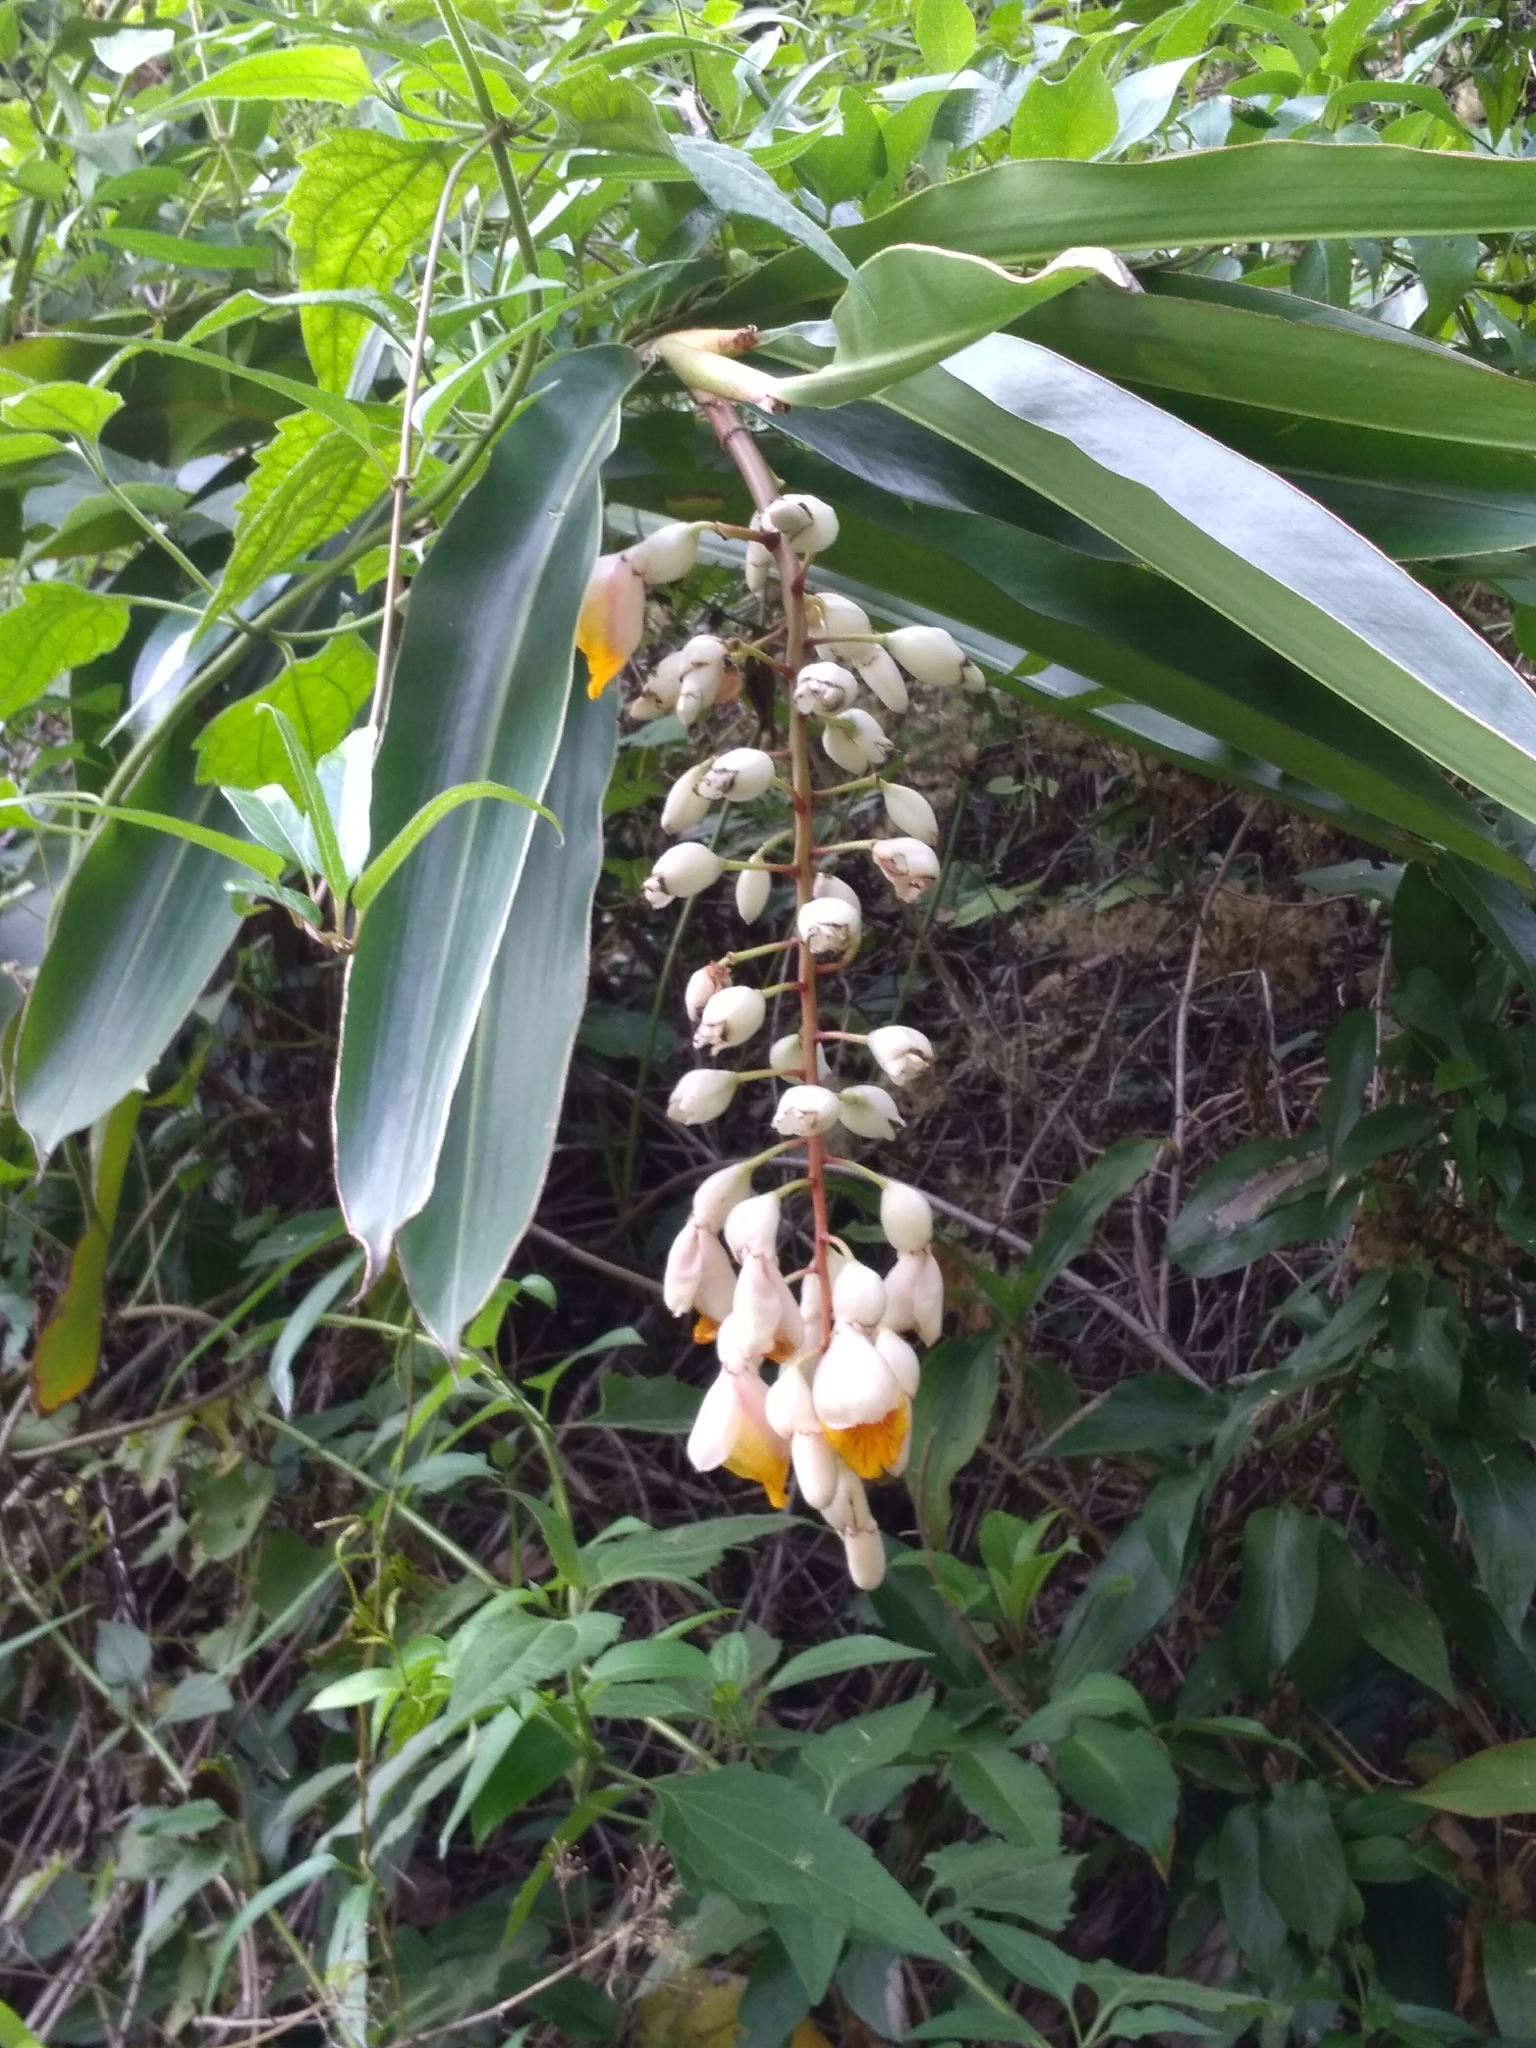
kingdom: Plantae
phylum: Tracheophyta
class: Liliopsida
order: Zingiberales
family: Zingiberaceae
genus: Alpinia
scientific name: Alpinia zerumbet
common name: Shellplant
